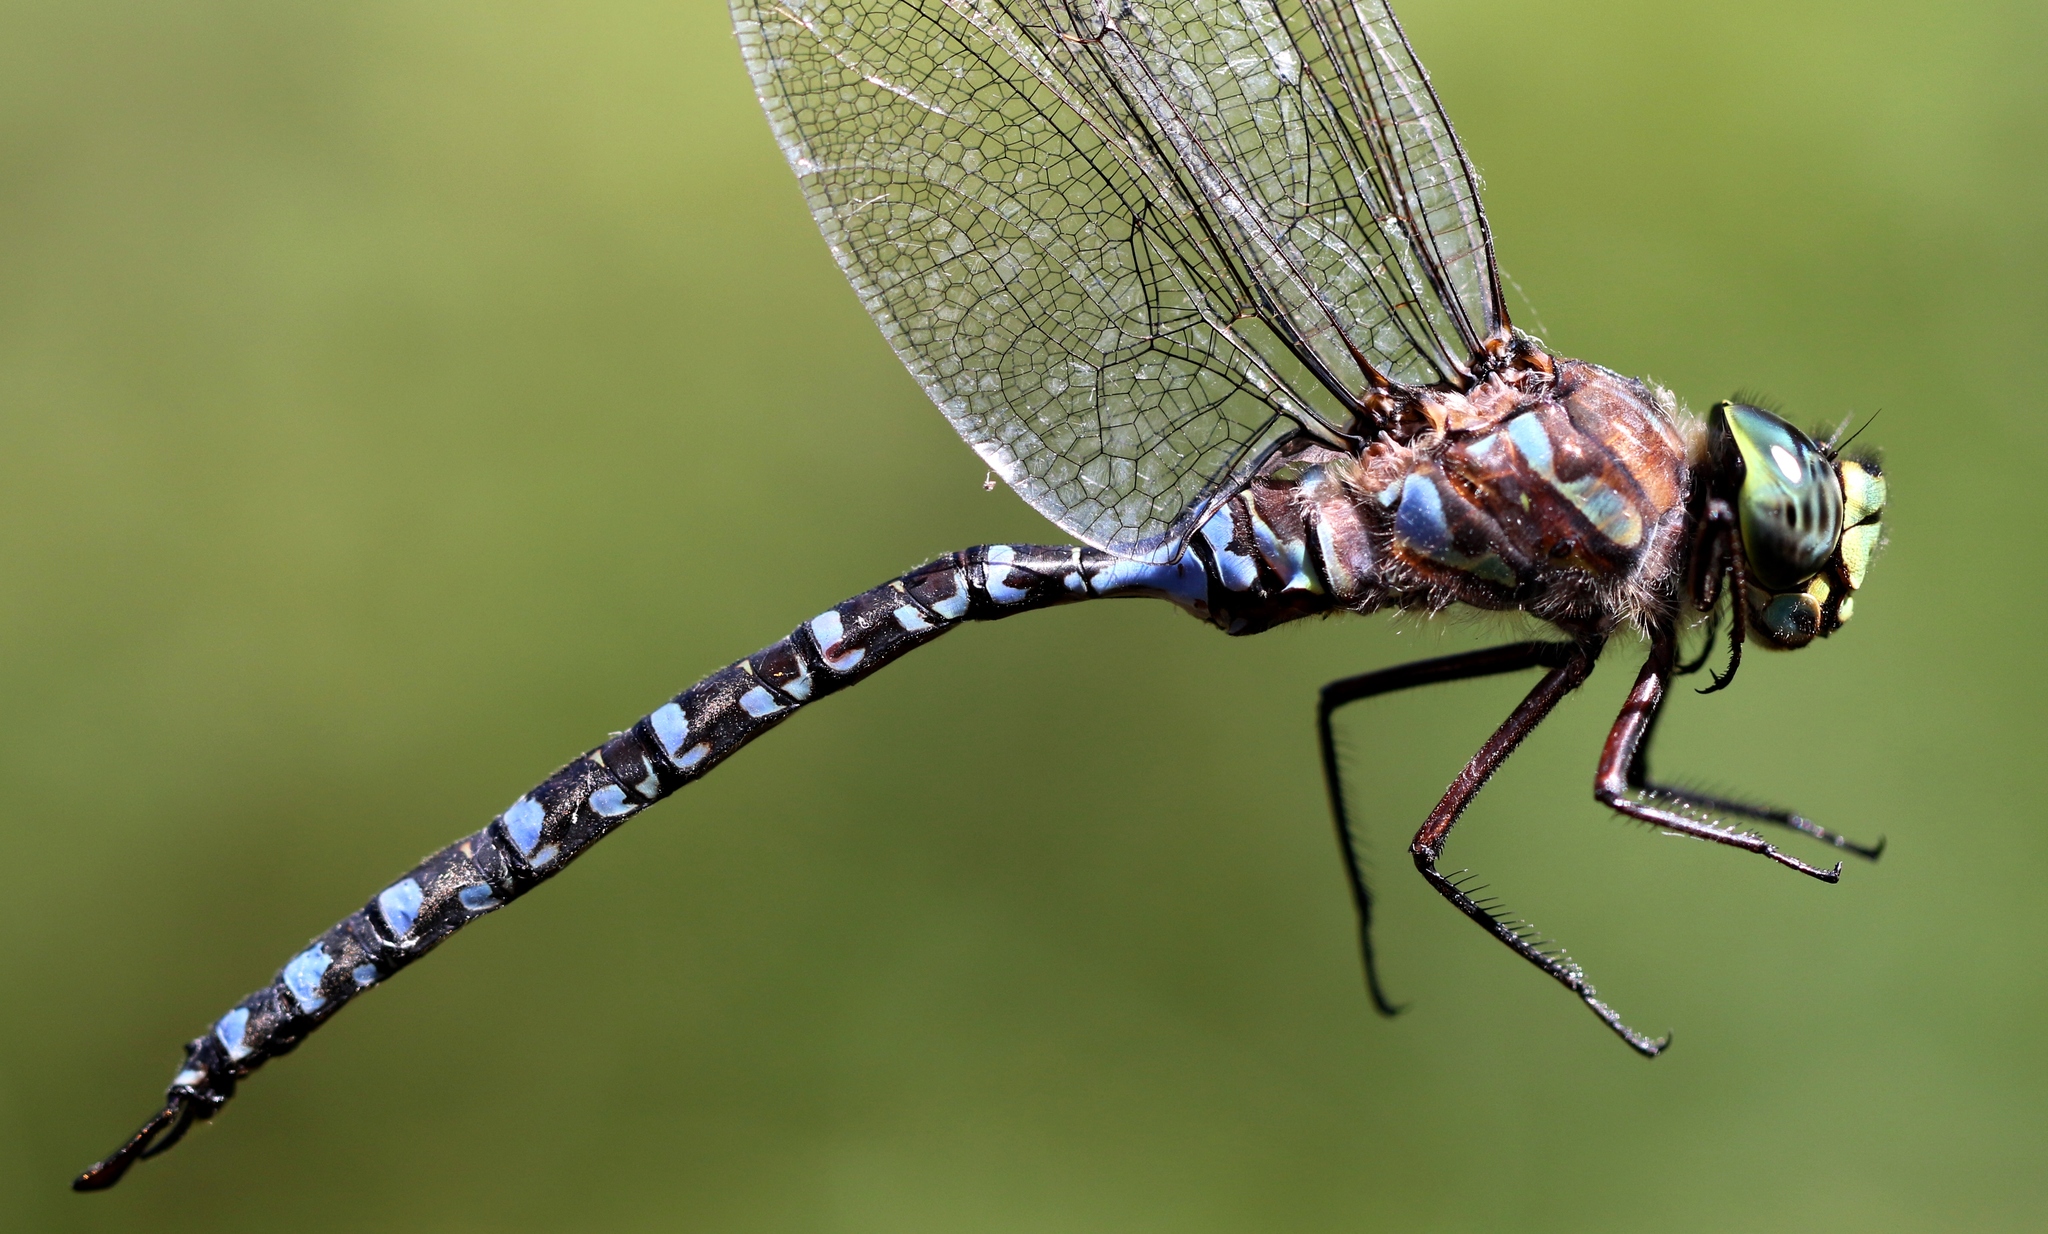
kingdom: Animalia
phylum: Arthropoda
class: Insecta
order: Odonata
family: Aeshnidae
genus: Aeshna
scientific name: Aeshna eremita
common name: Lake darner
